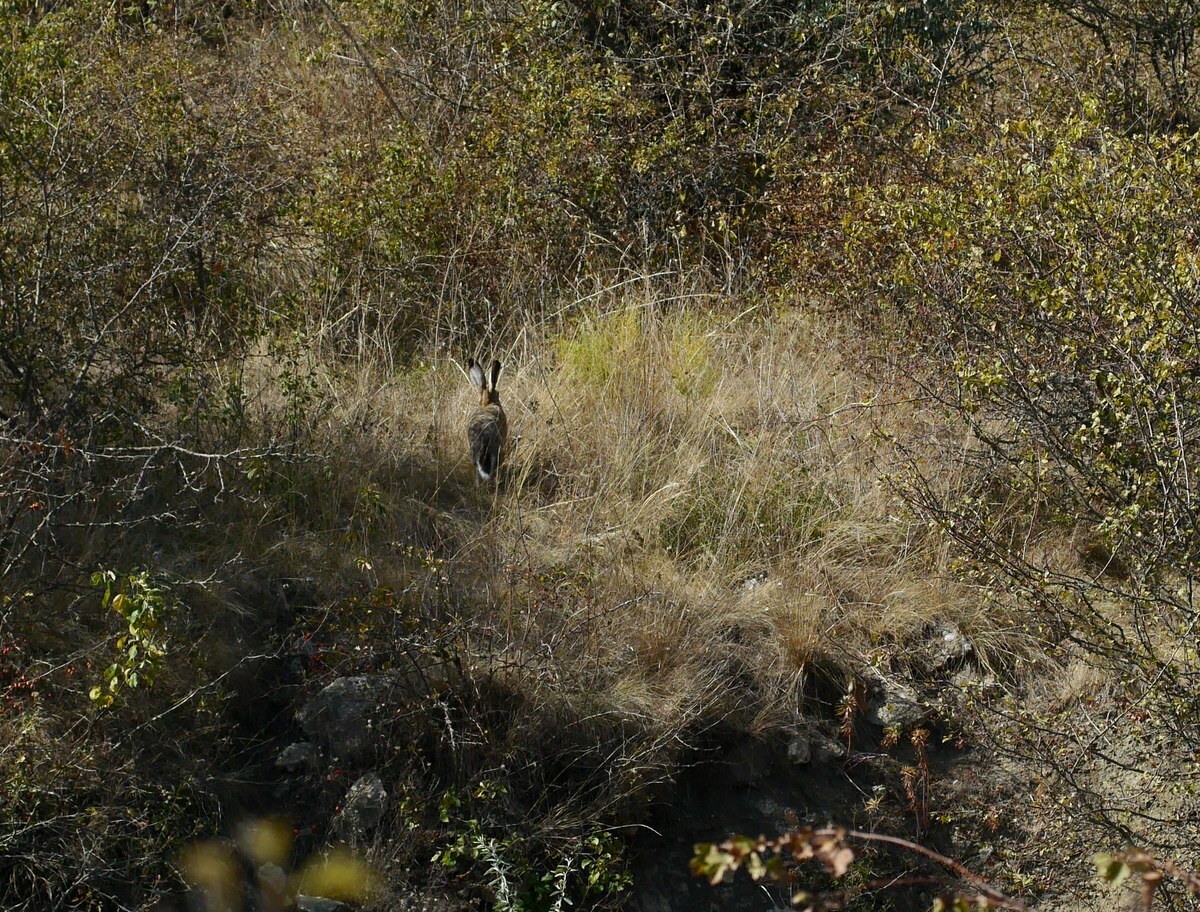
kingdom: Animalia
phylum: Chordata
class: Mammalia
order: Lagomorpha
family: Leporidae
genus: Lepus
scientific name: Lepus europaeus
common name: European hare
